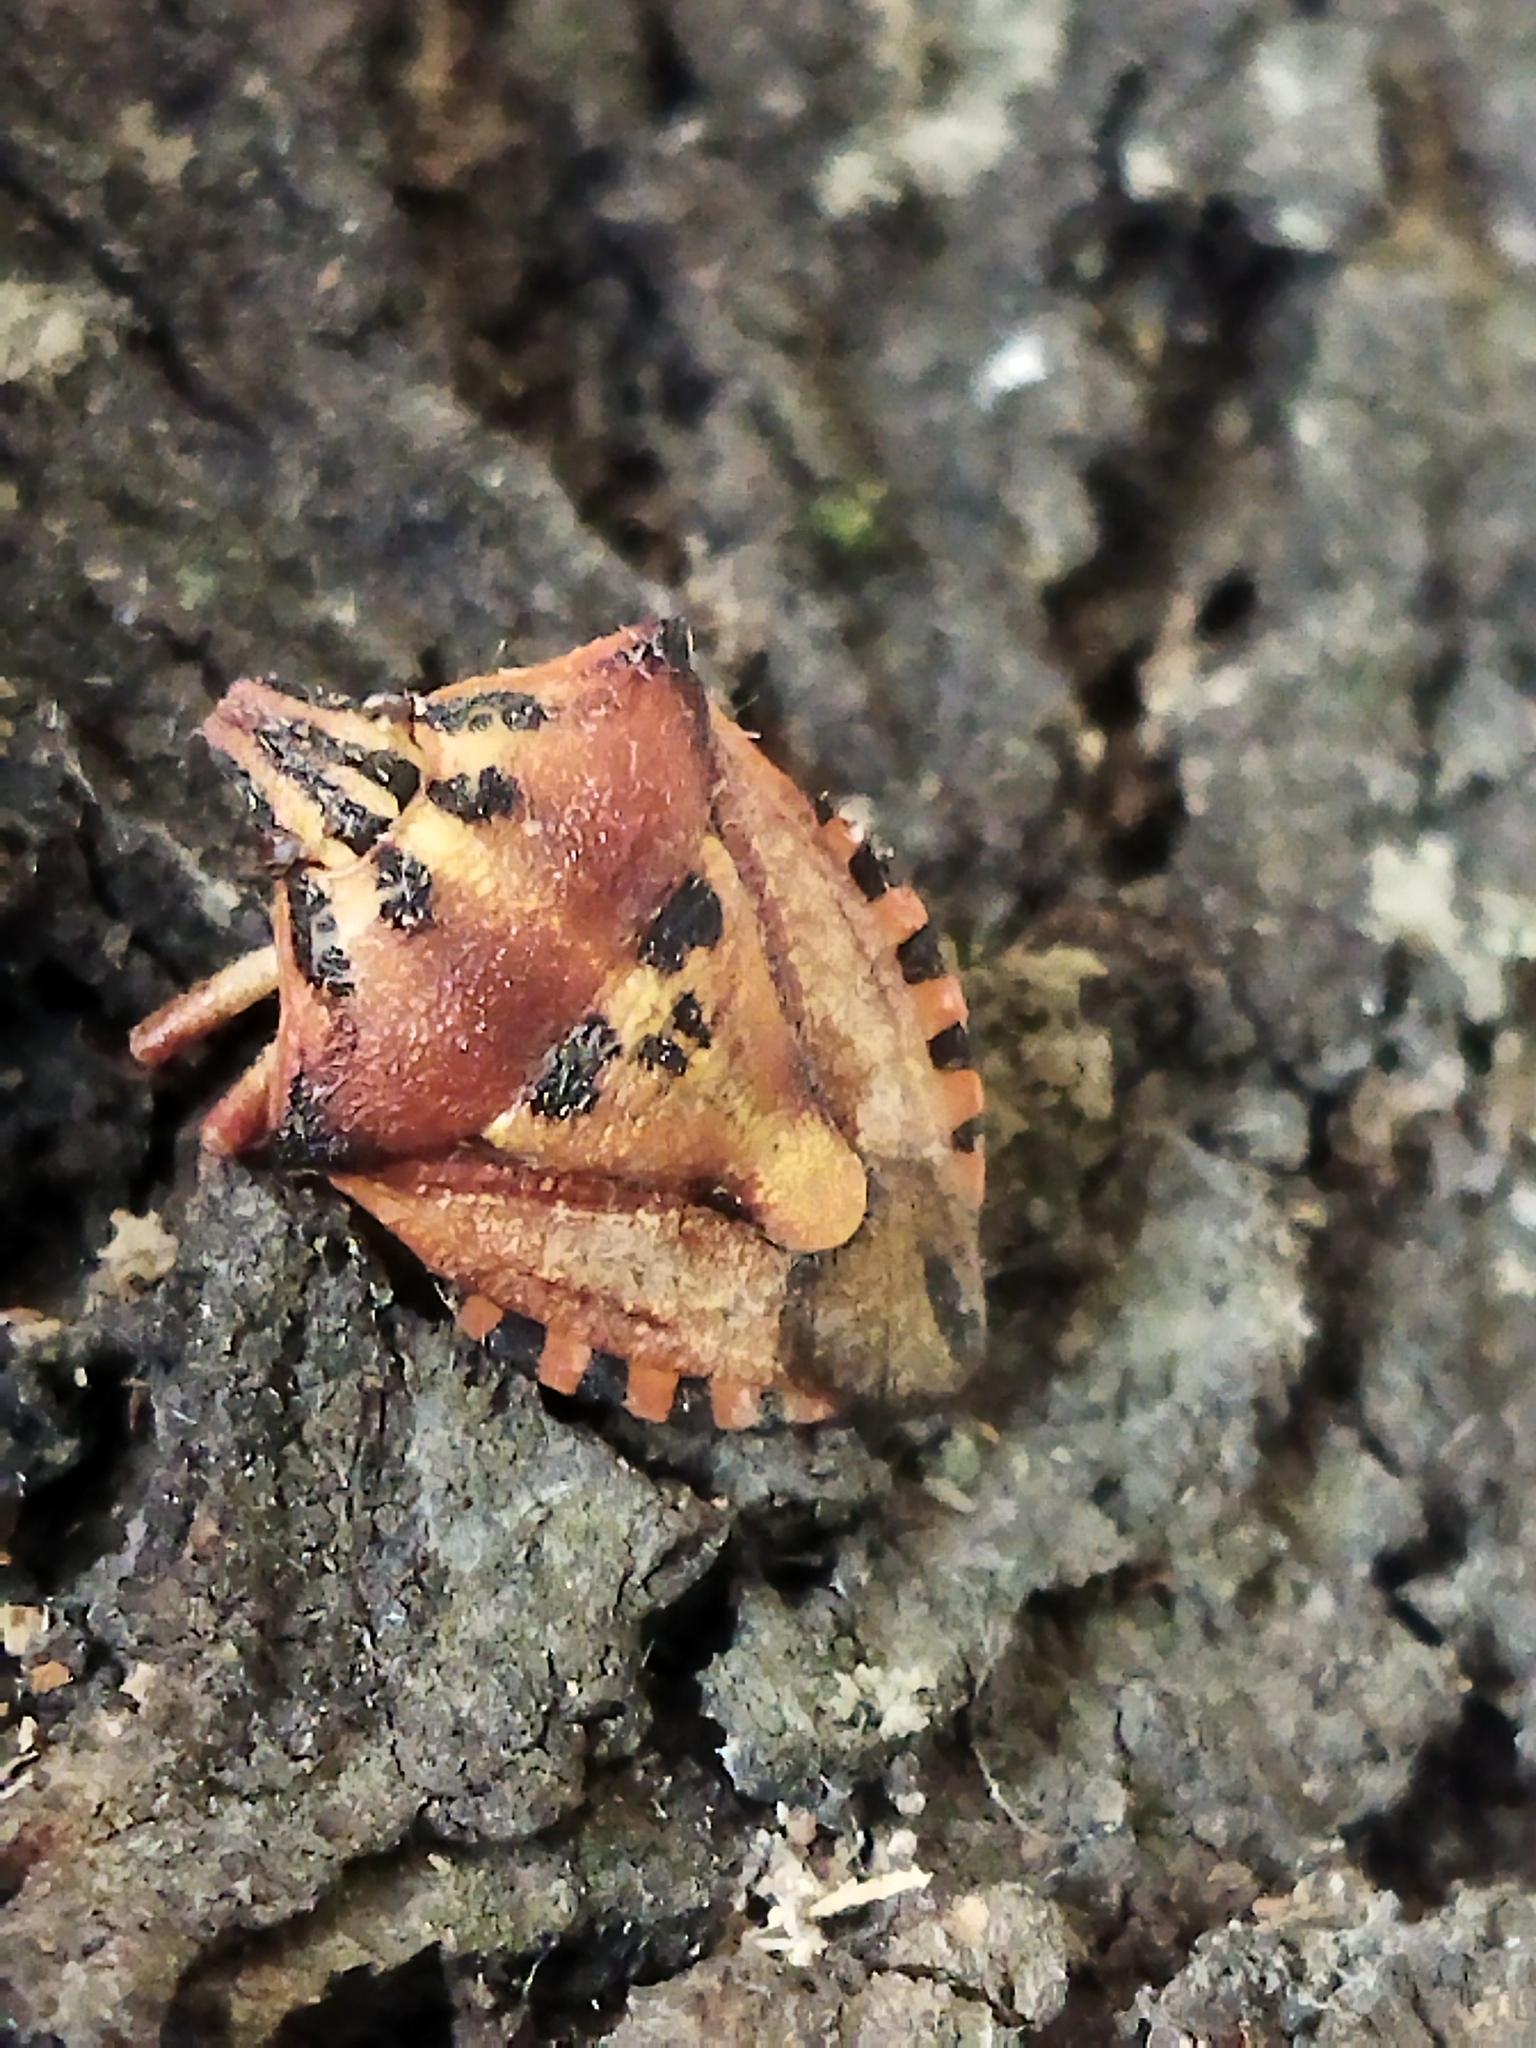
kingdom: Animalia
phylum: Arthropoda
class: Insecta
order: Hemiptera
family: Pentatomidae
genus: Carpocoris
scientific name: Carpocoris mediterraneus
